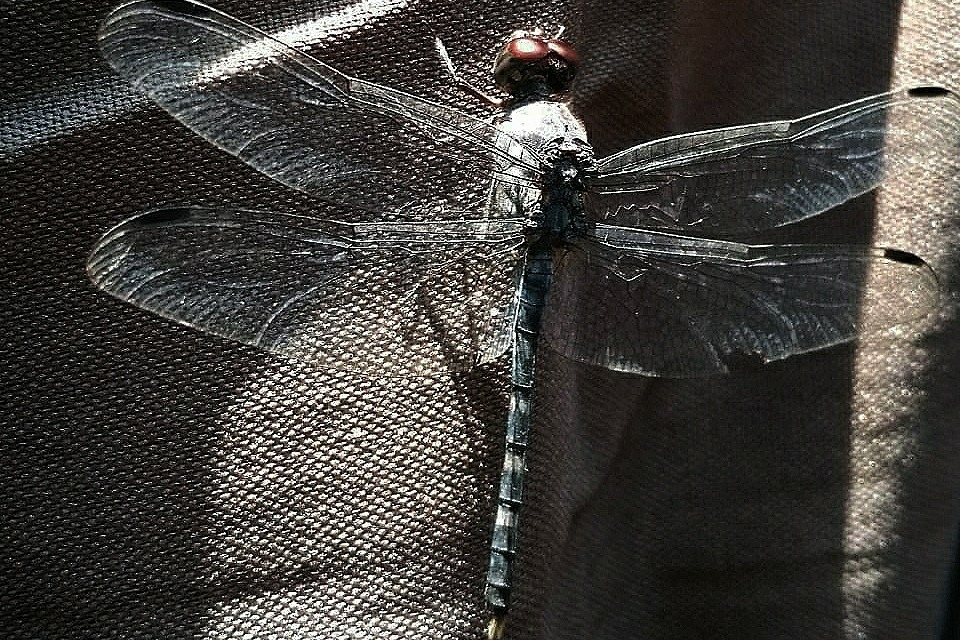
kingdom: Animalia
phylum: Arthropoda
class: Insecta
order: Odonata
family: Libellulidae
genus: Bradinopyga
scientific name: Bradinopyga geminata
